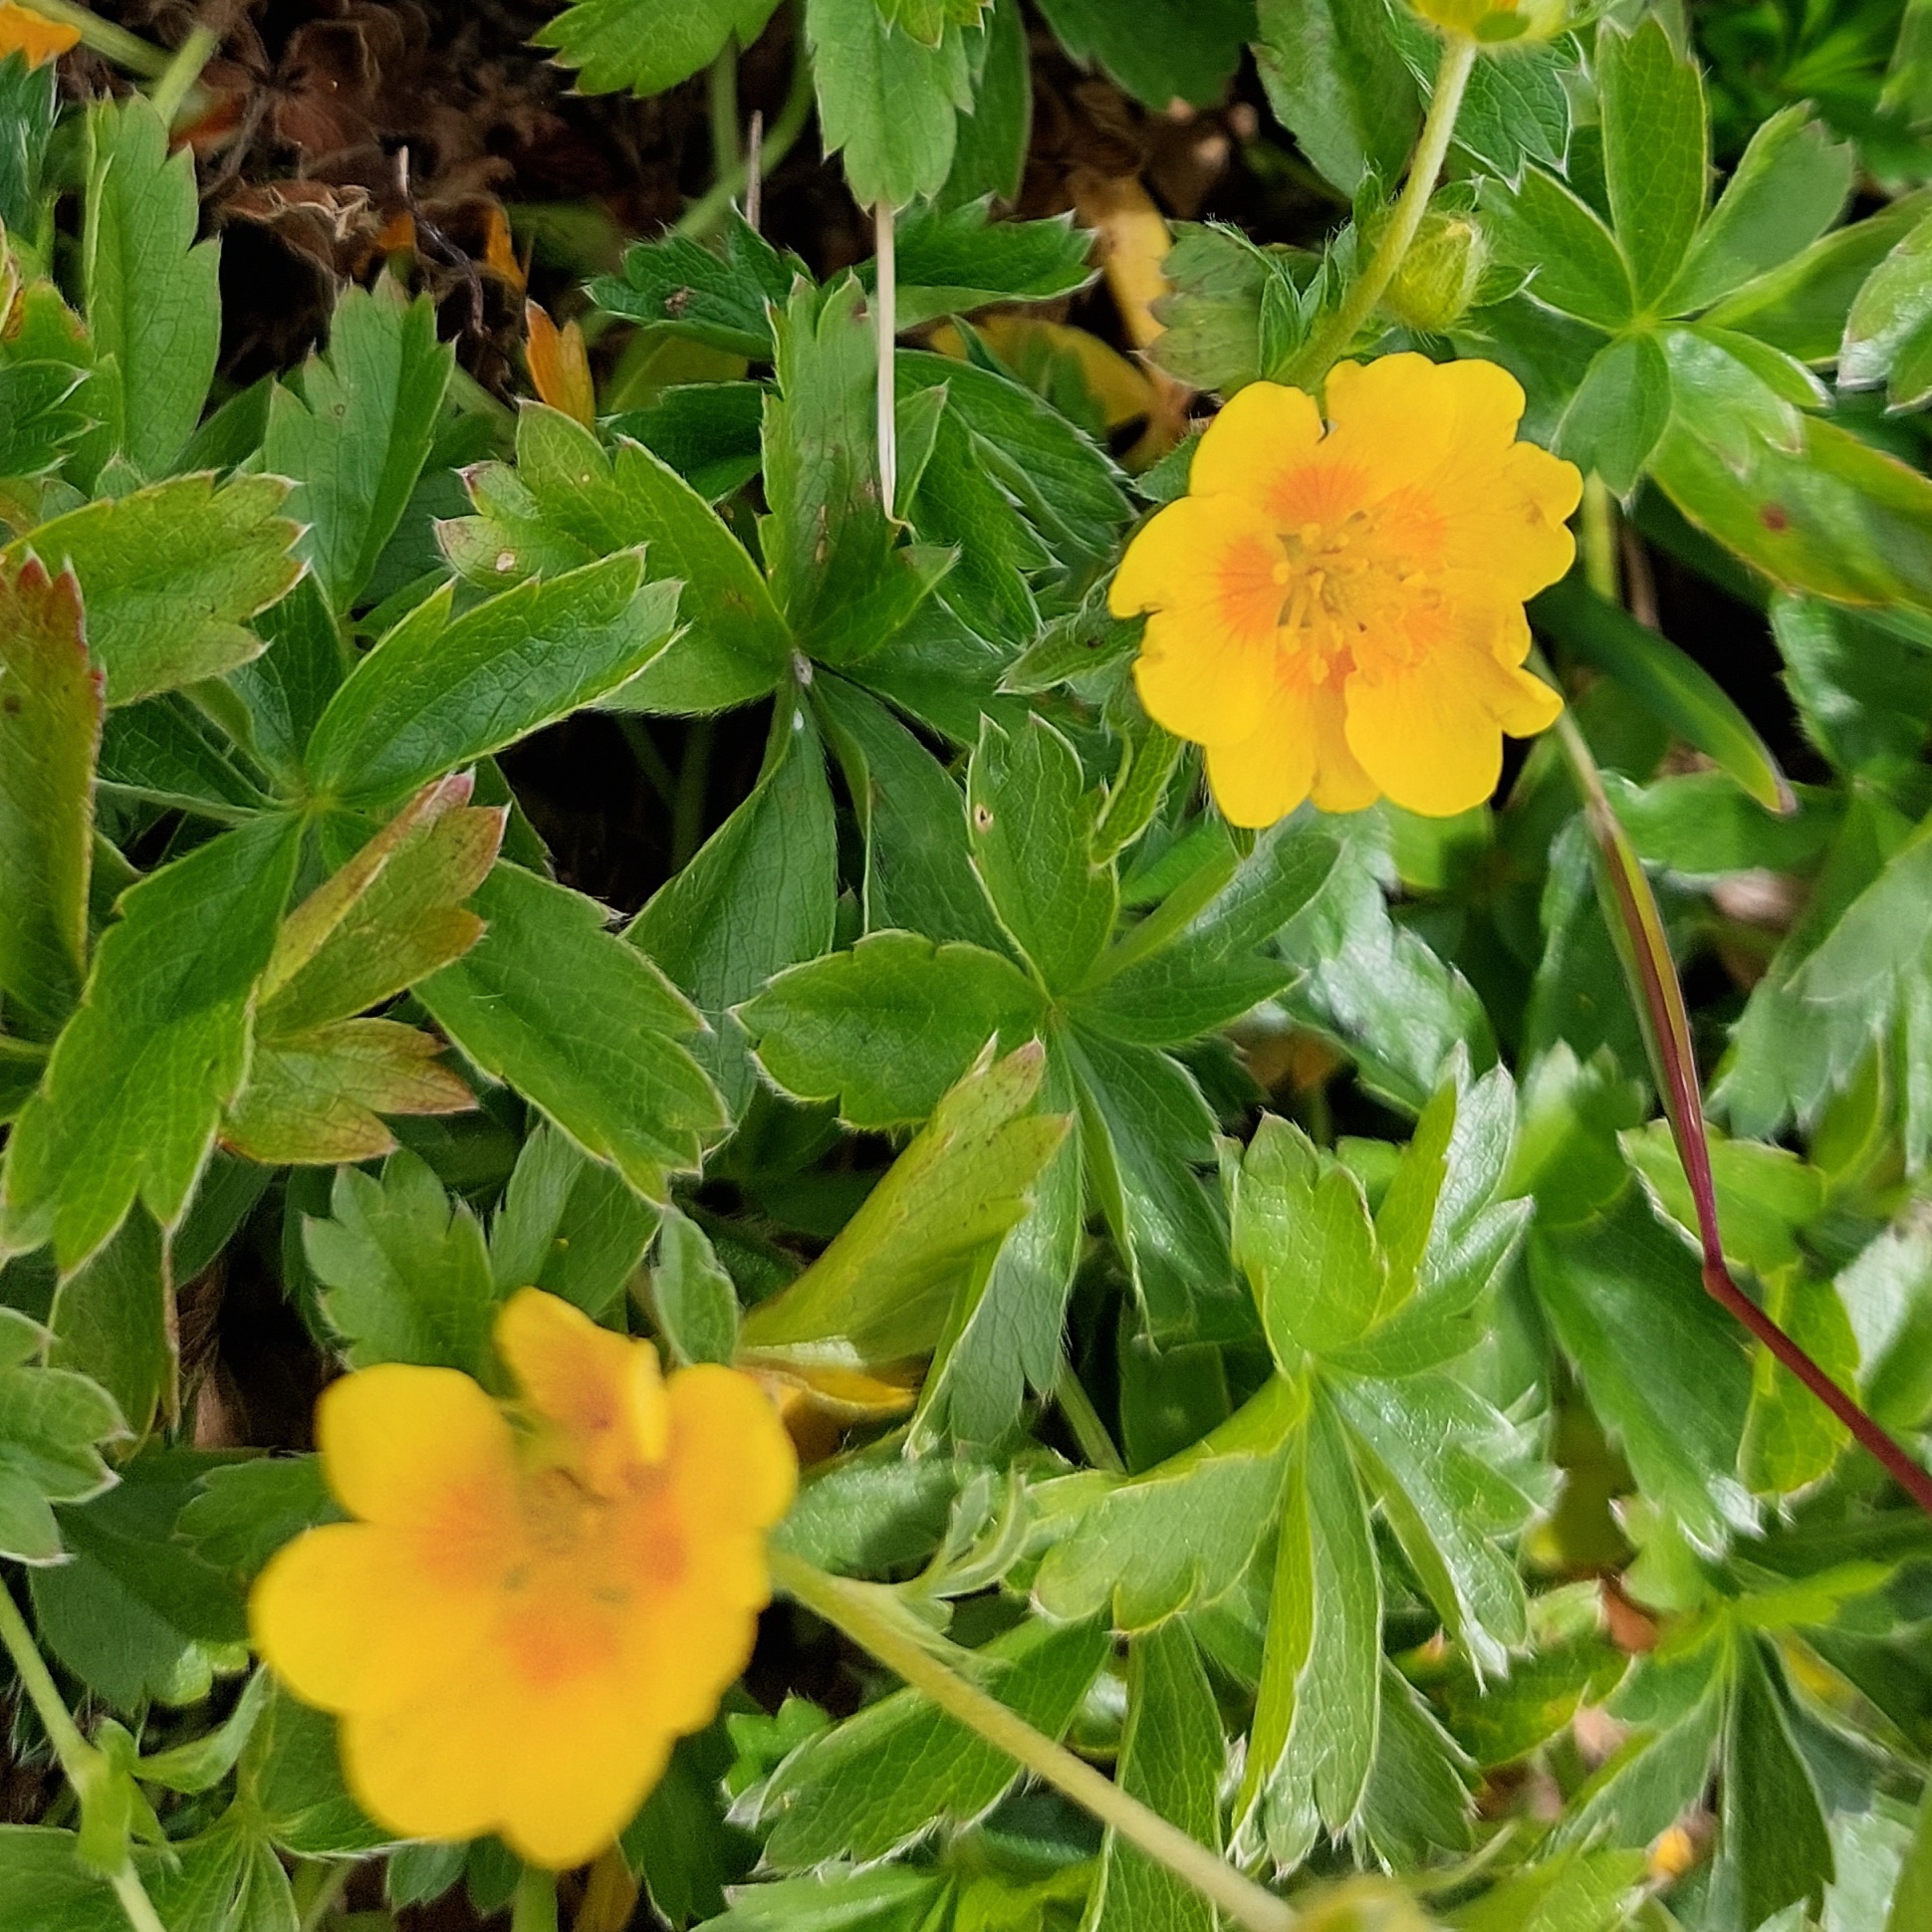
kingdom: Plantae
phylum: Tracheophyta
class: Magnoliopsida
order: Rosales
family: Rosaceae
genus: Potentilla
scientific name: Potentilla aurea
